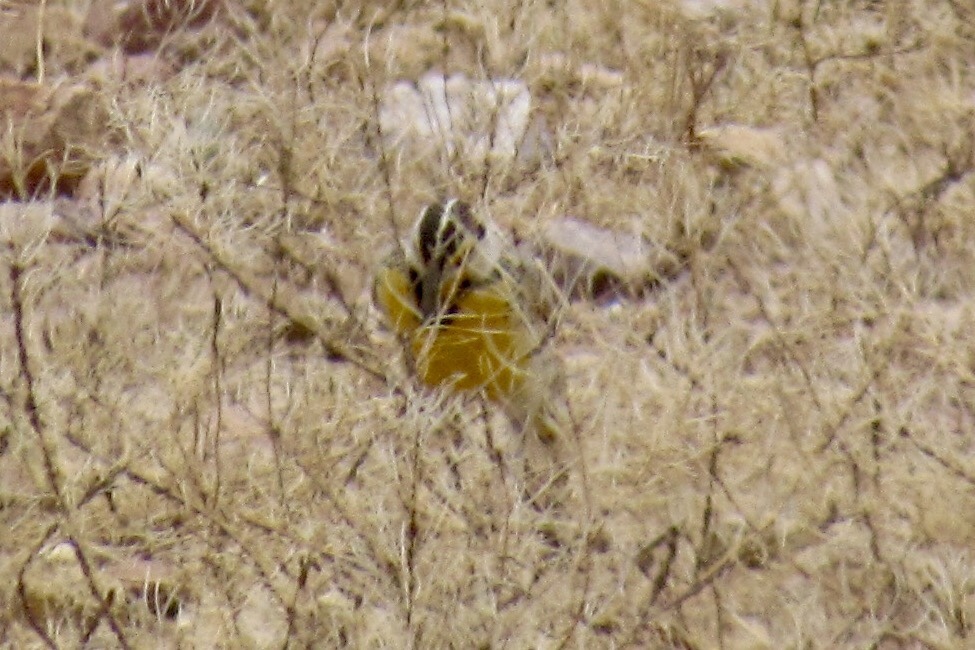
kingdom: Animalia
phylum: Chordata
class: Aves
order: Passeriformes
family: Icteridae
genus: Sturnella
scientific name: Sturnella lilianae
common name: Lilian's meadowlark
